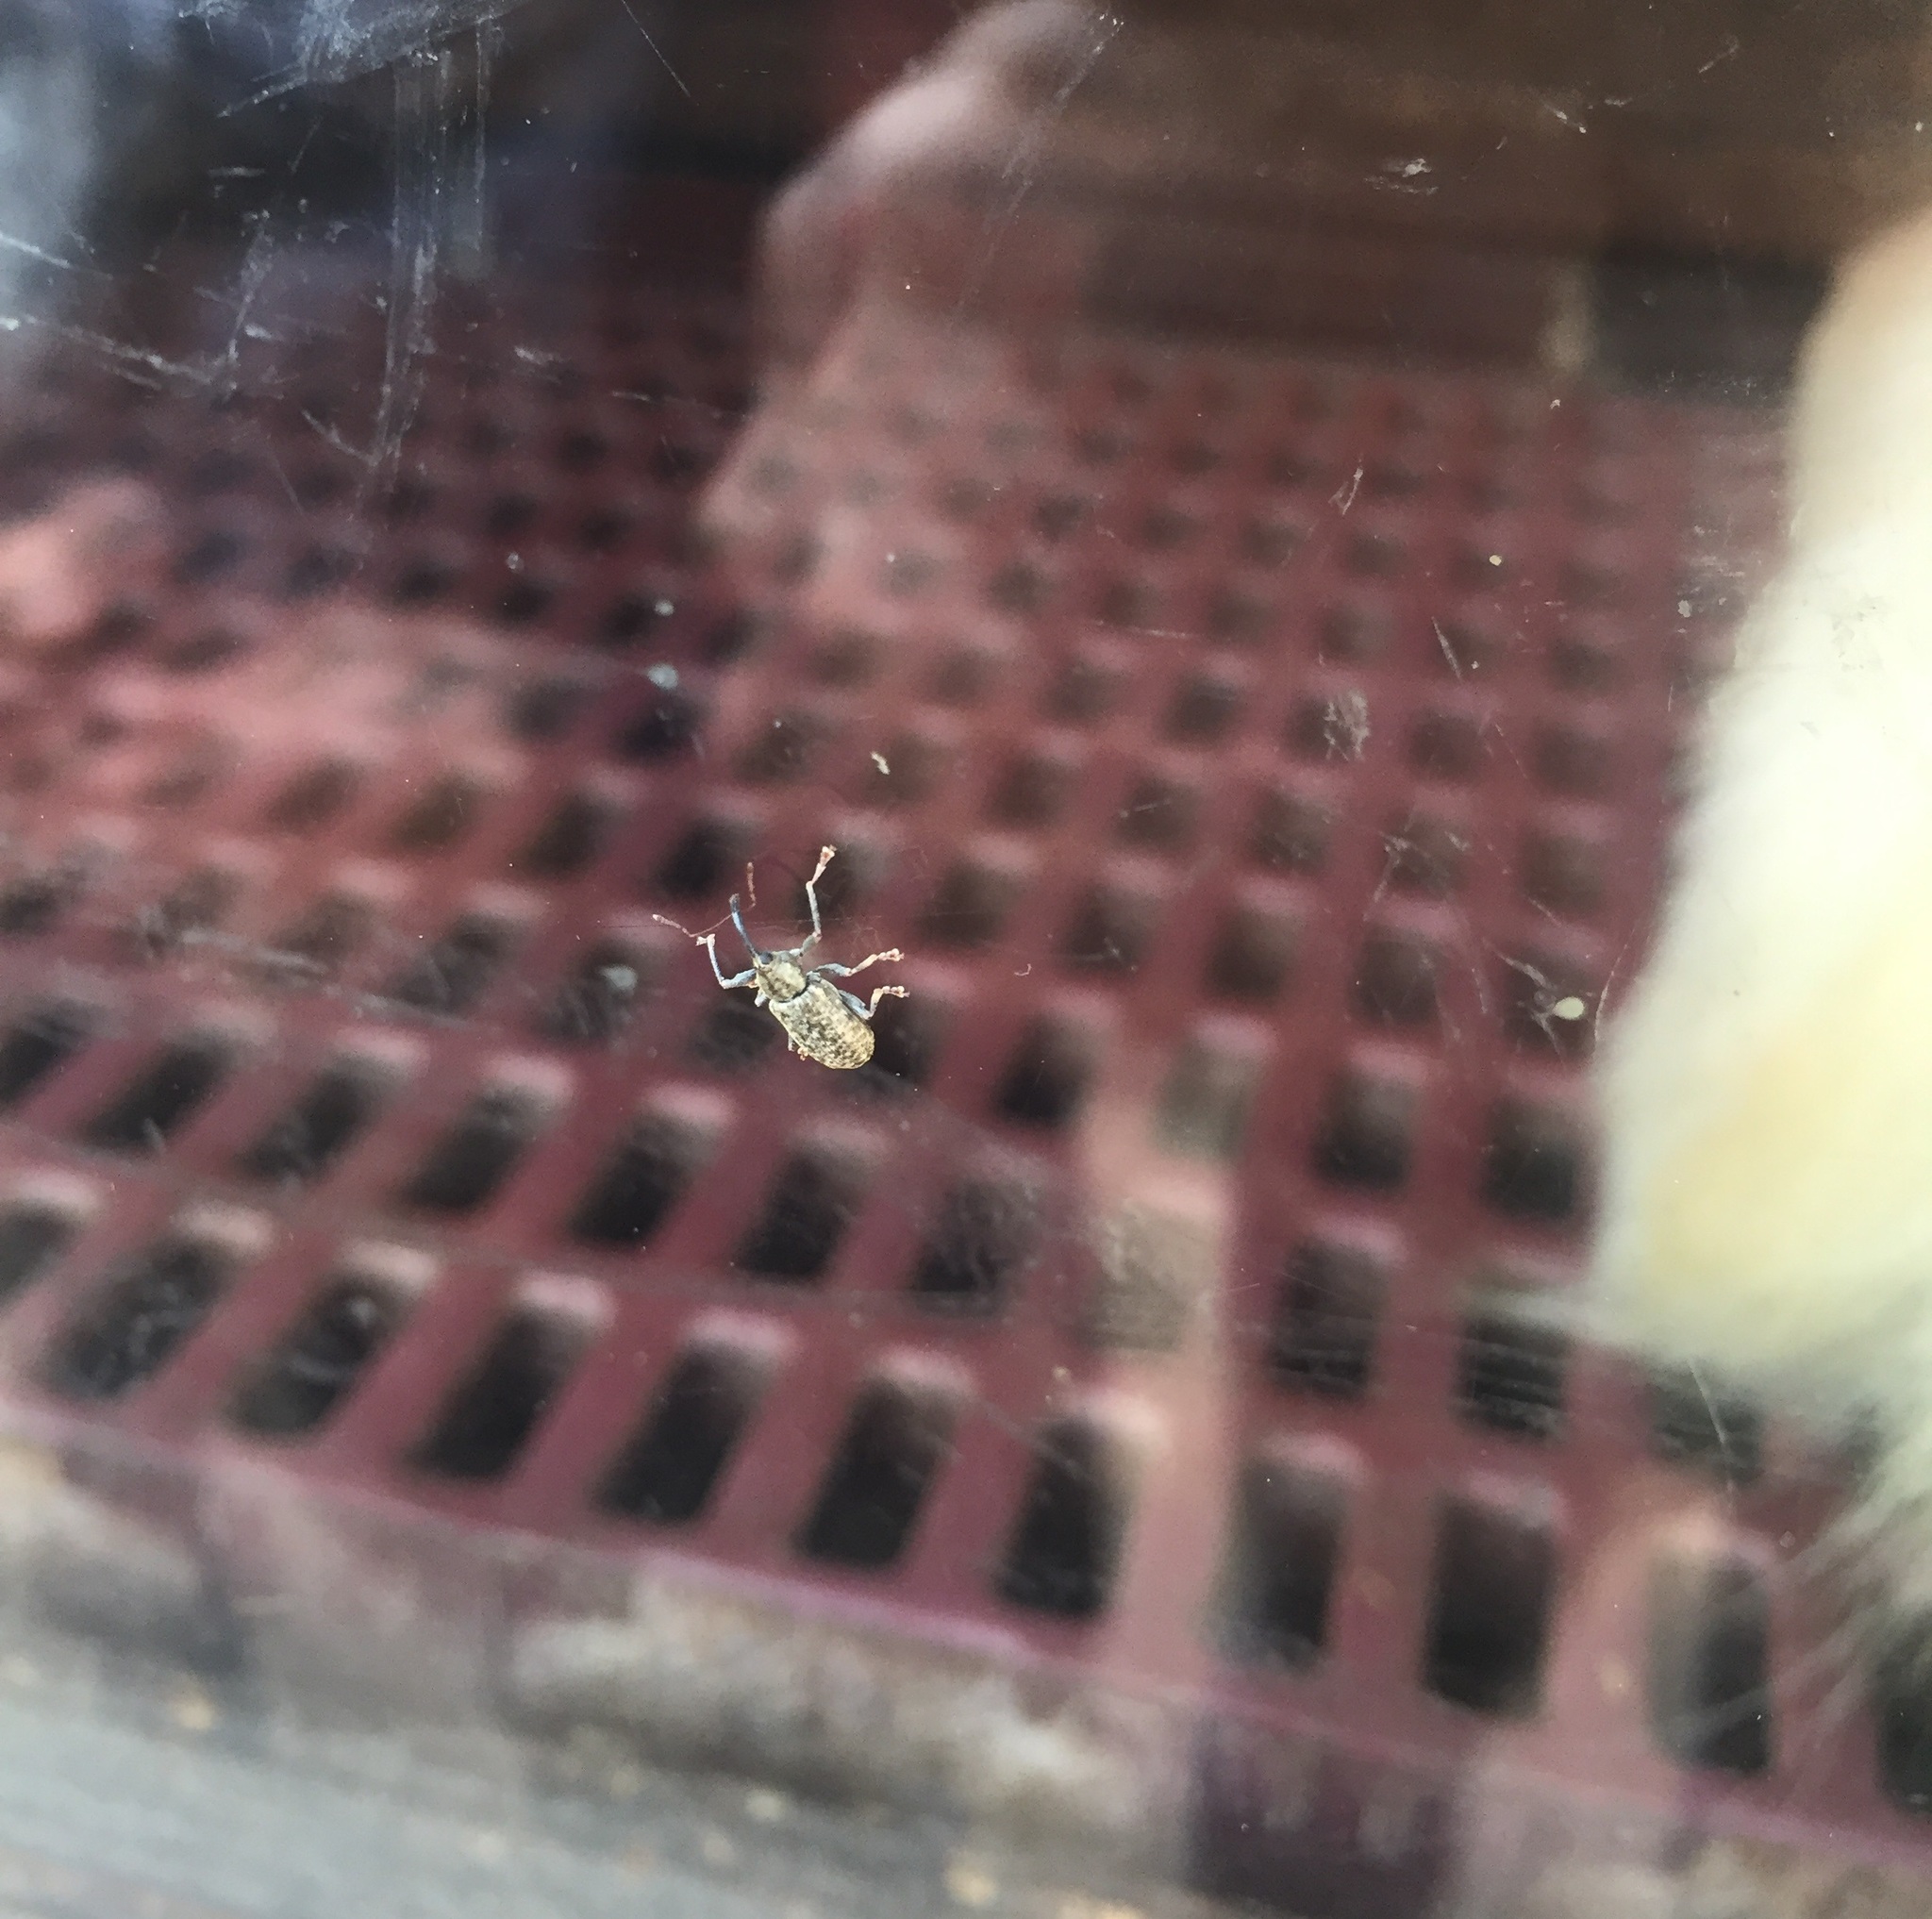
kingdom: Animalia
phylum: Arthropoda
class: Insecta
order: Coleoptera
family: Curculionidae
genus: Dorytomus
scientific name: Dorytomus longimanus
